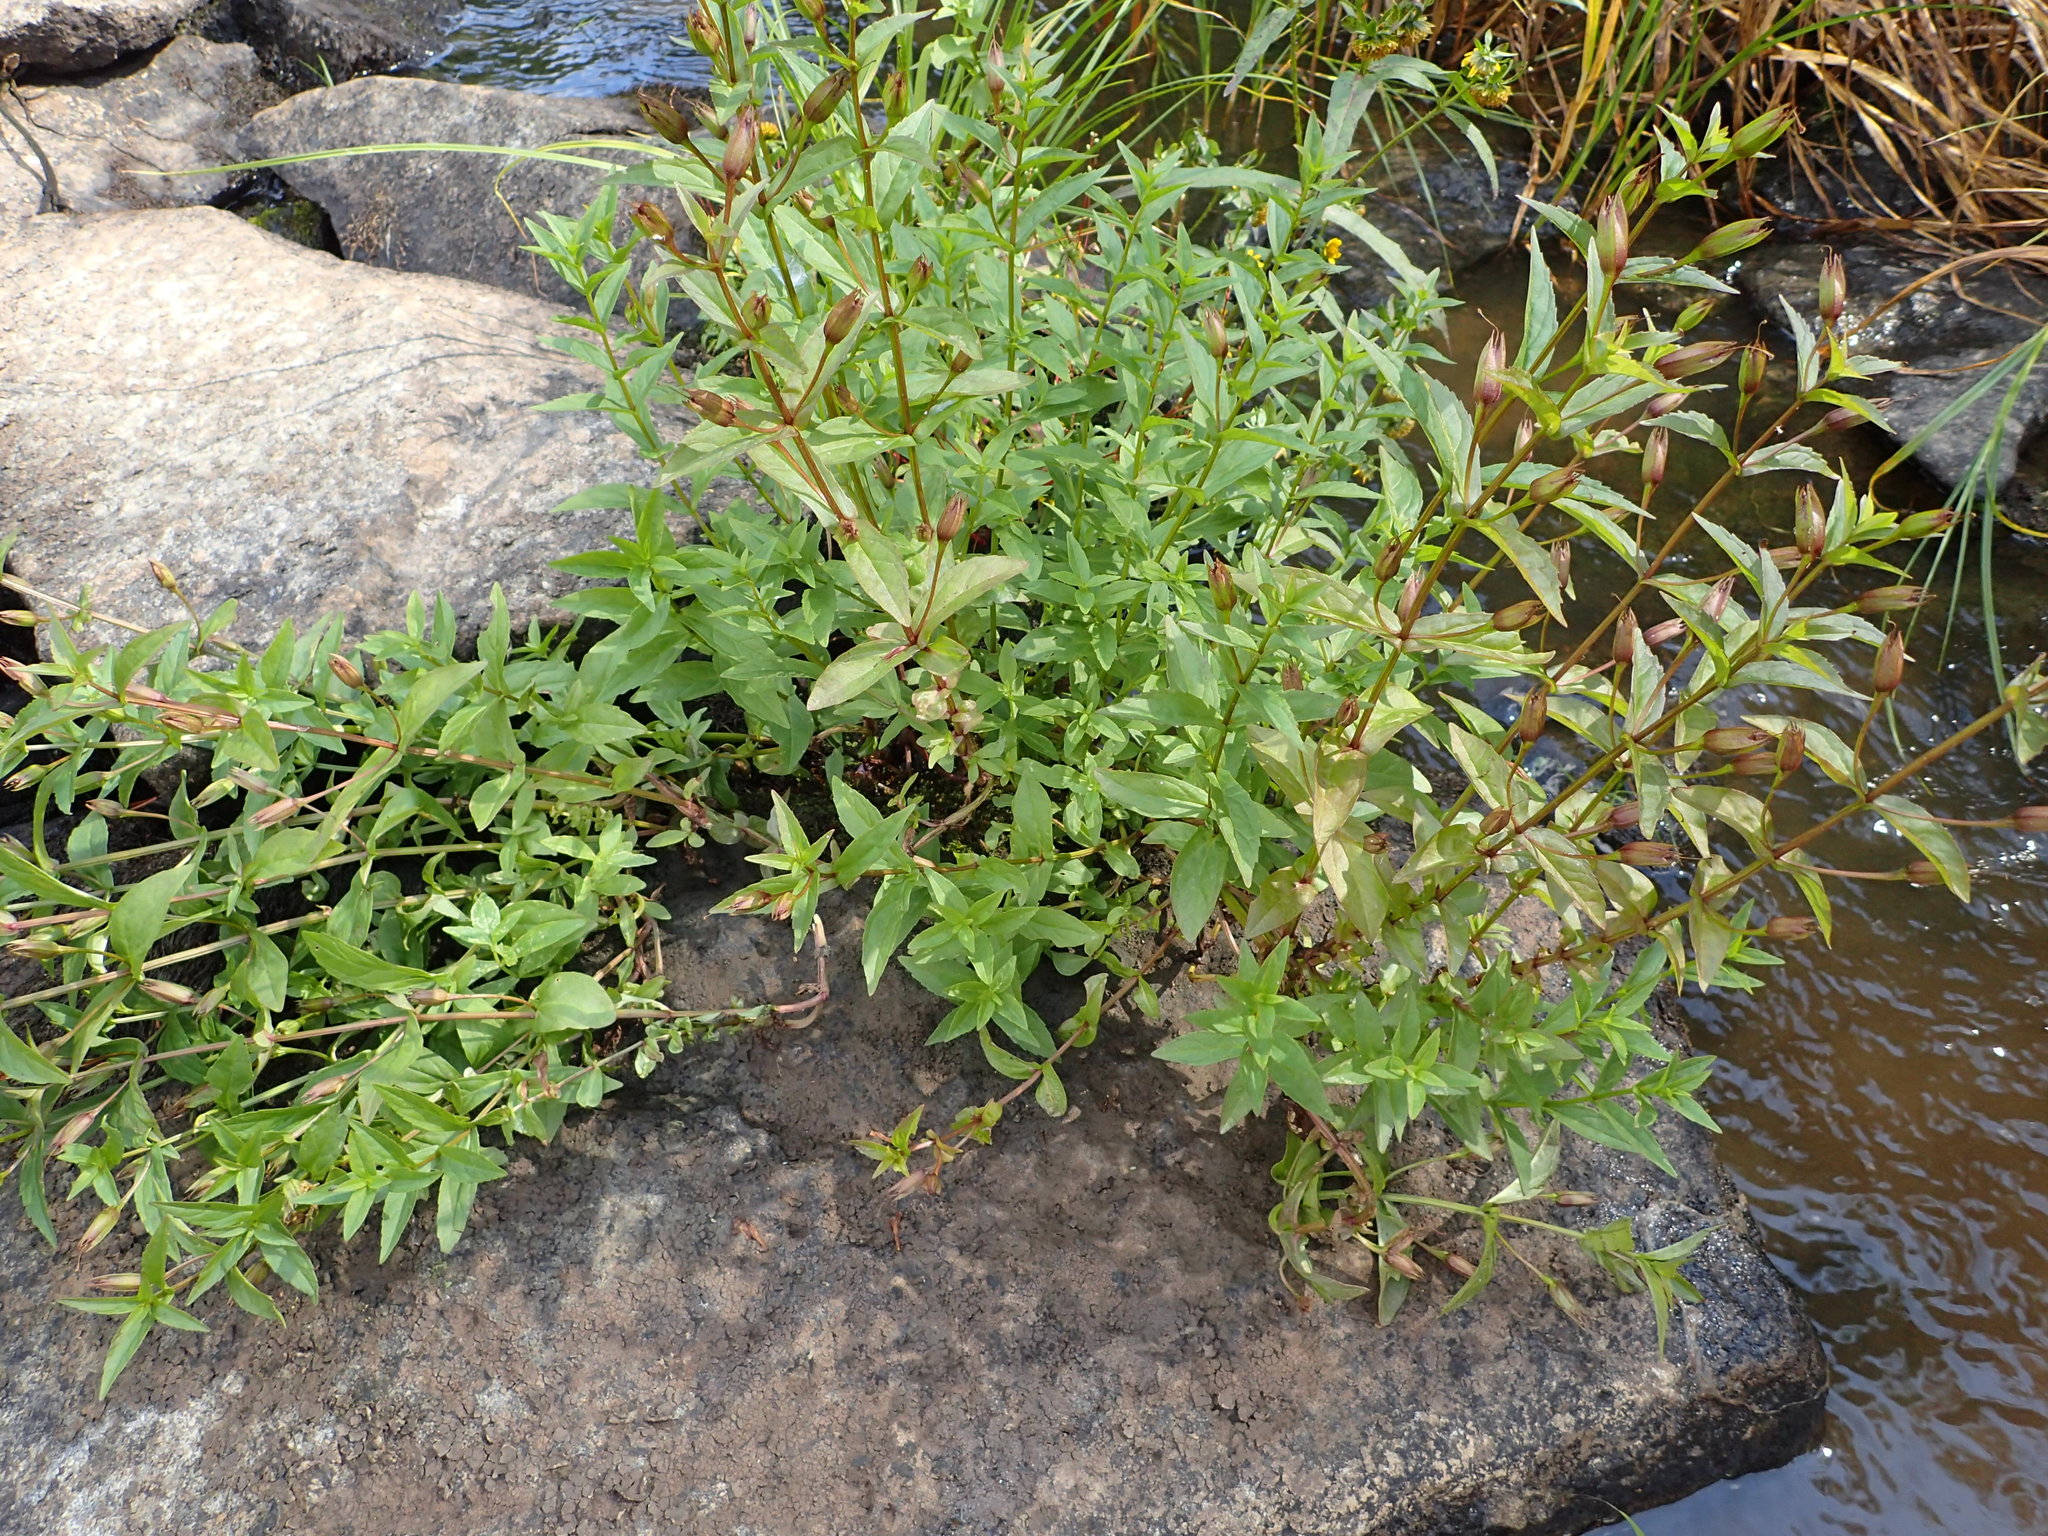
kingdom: Plantae
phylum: Tracheophyta
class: Magnoliopsida
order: Lamiales
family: Phrymaceae
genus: Mimulus
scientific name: Mimulus ringens
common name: Allegheny monkeyflower
